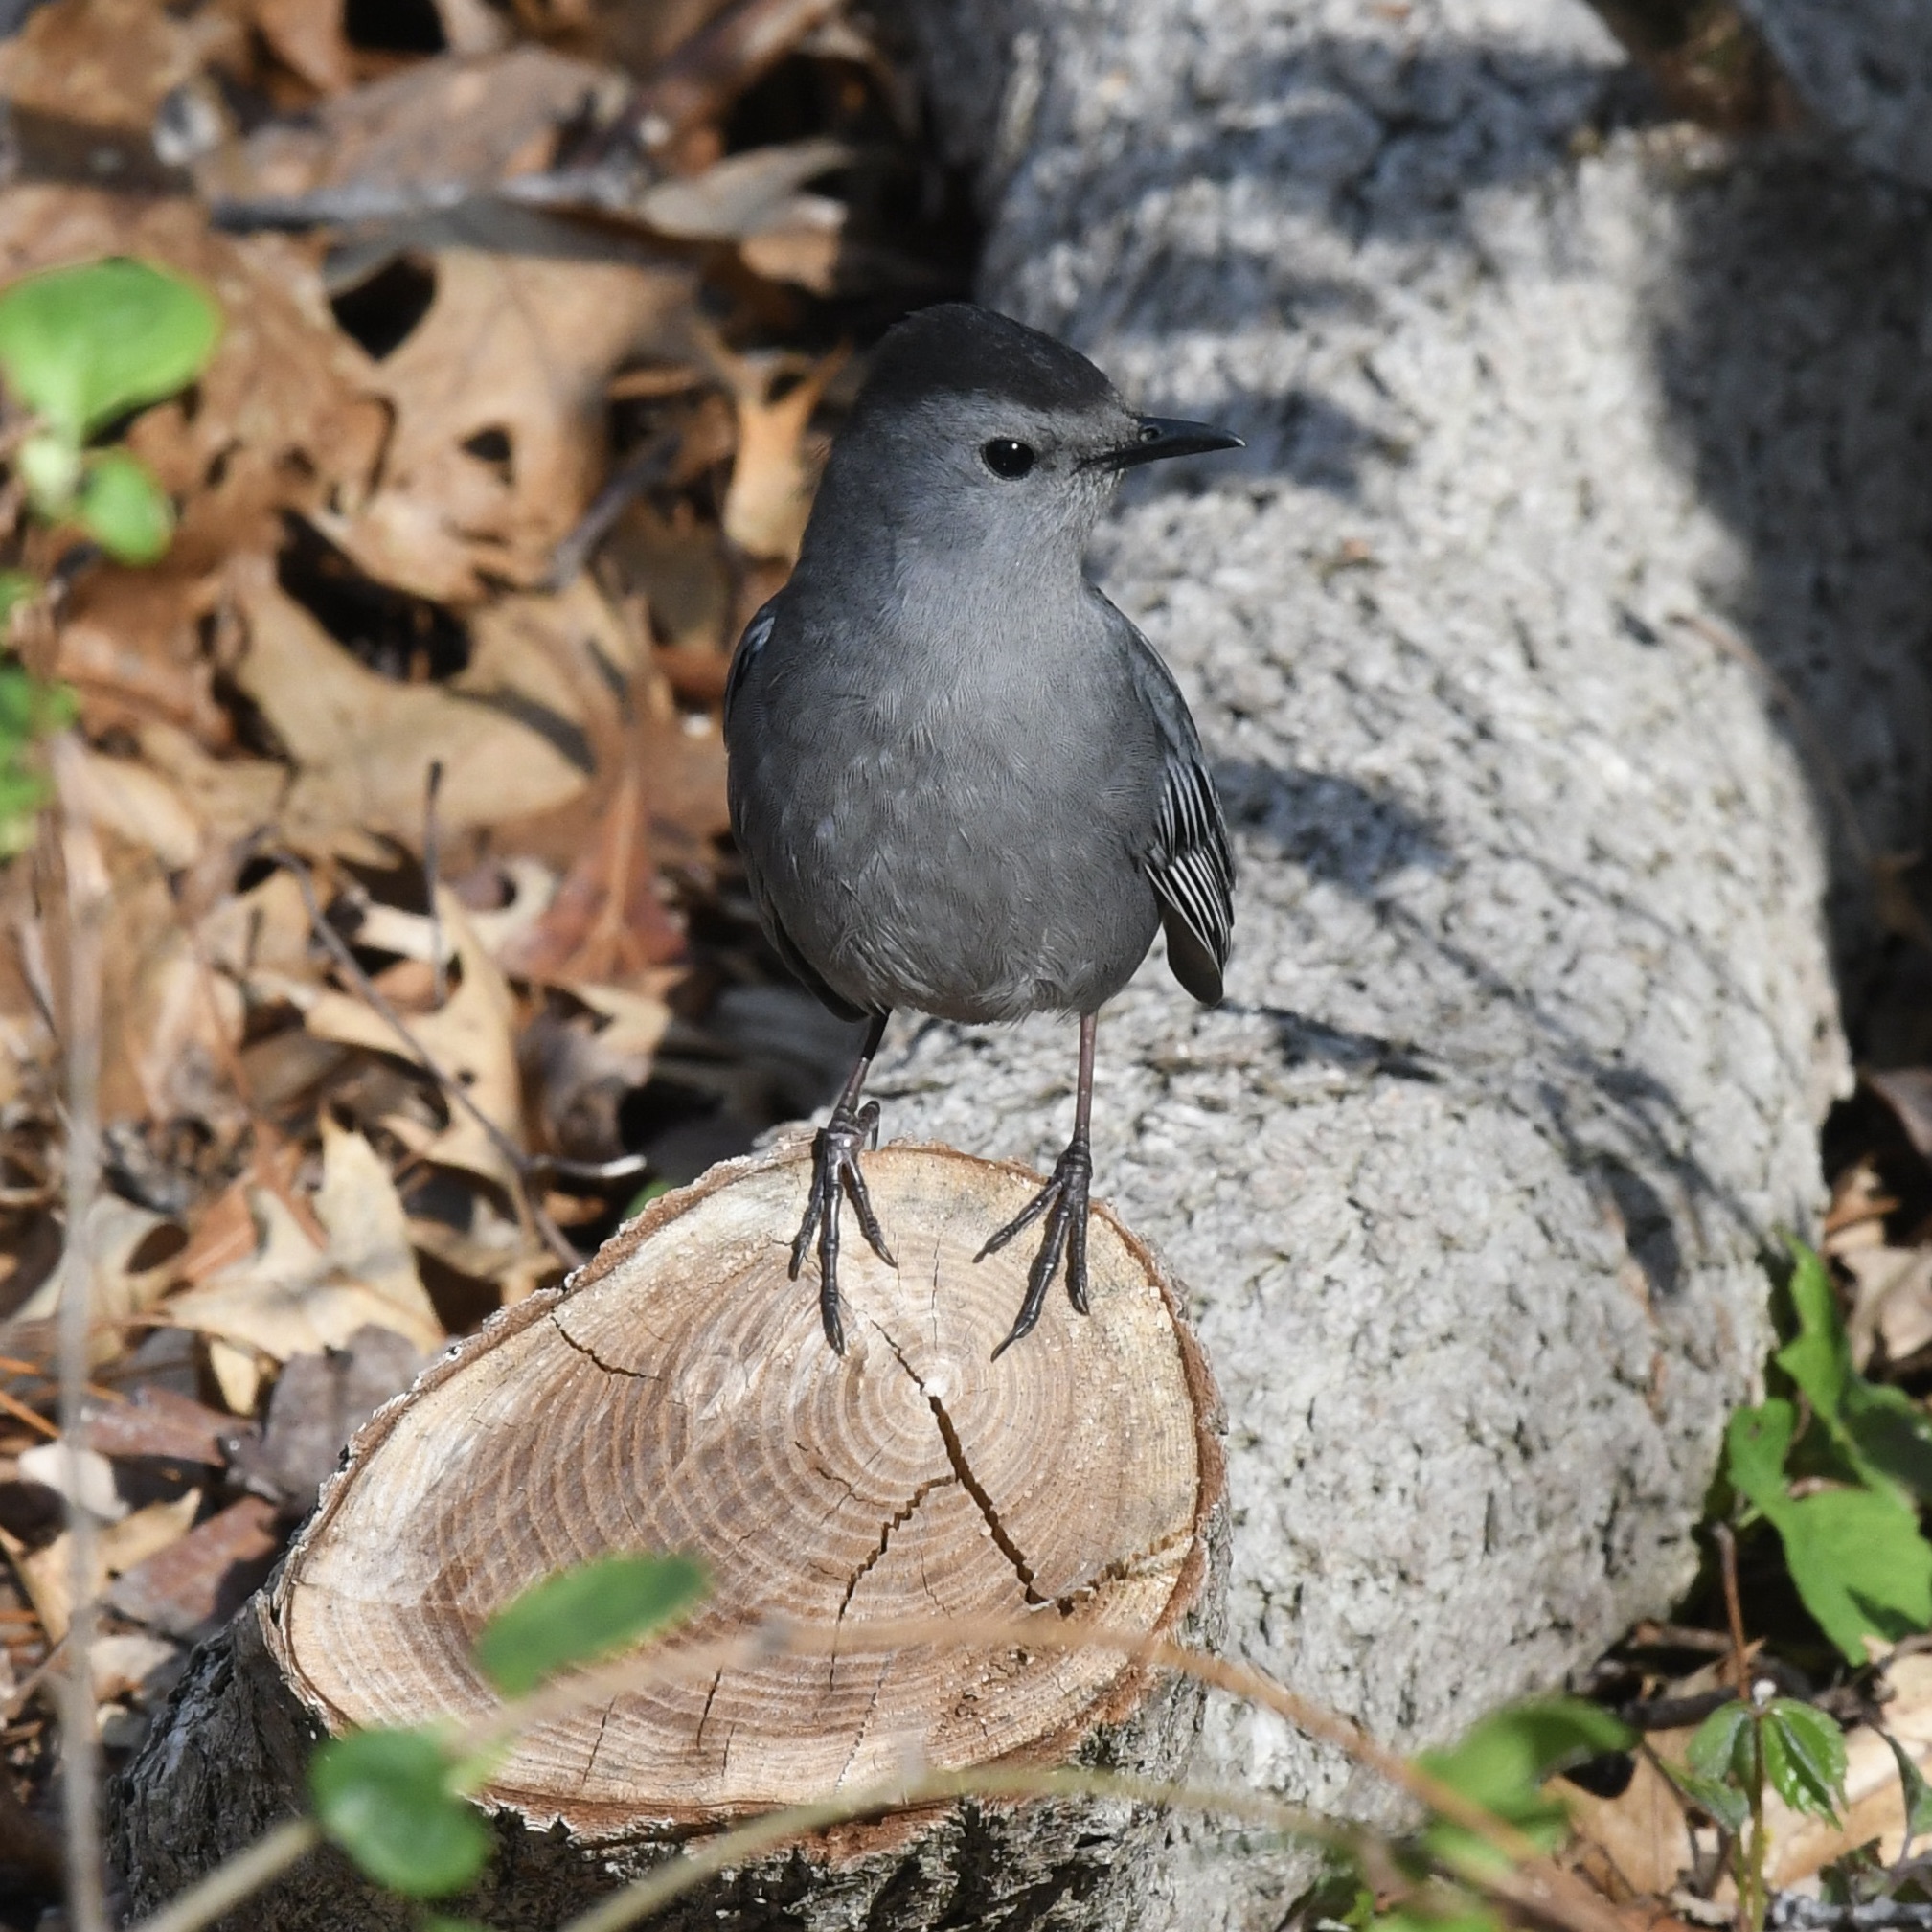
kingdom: Animalia
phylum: Chordata
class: Aves
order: Passeriformes
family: Mimidae
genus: Dumetella
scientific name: Dumetella carolinensis
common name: Gray catbird
